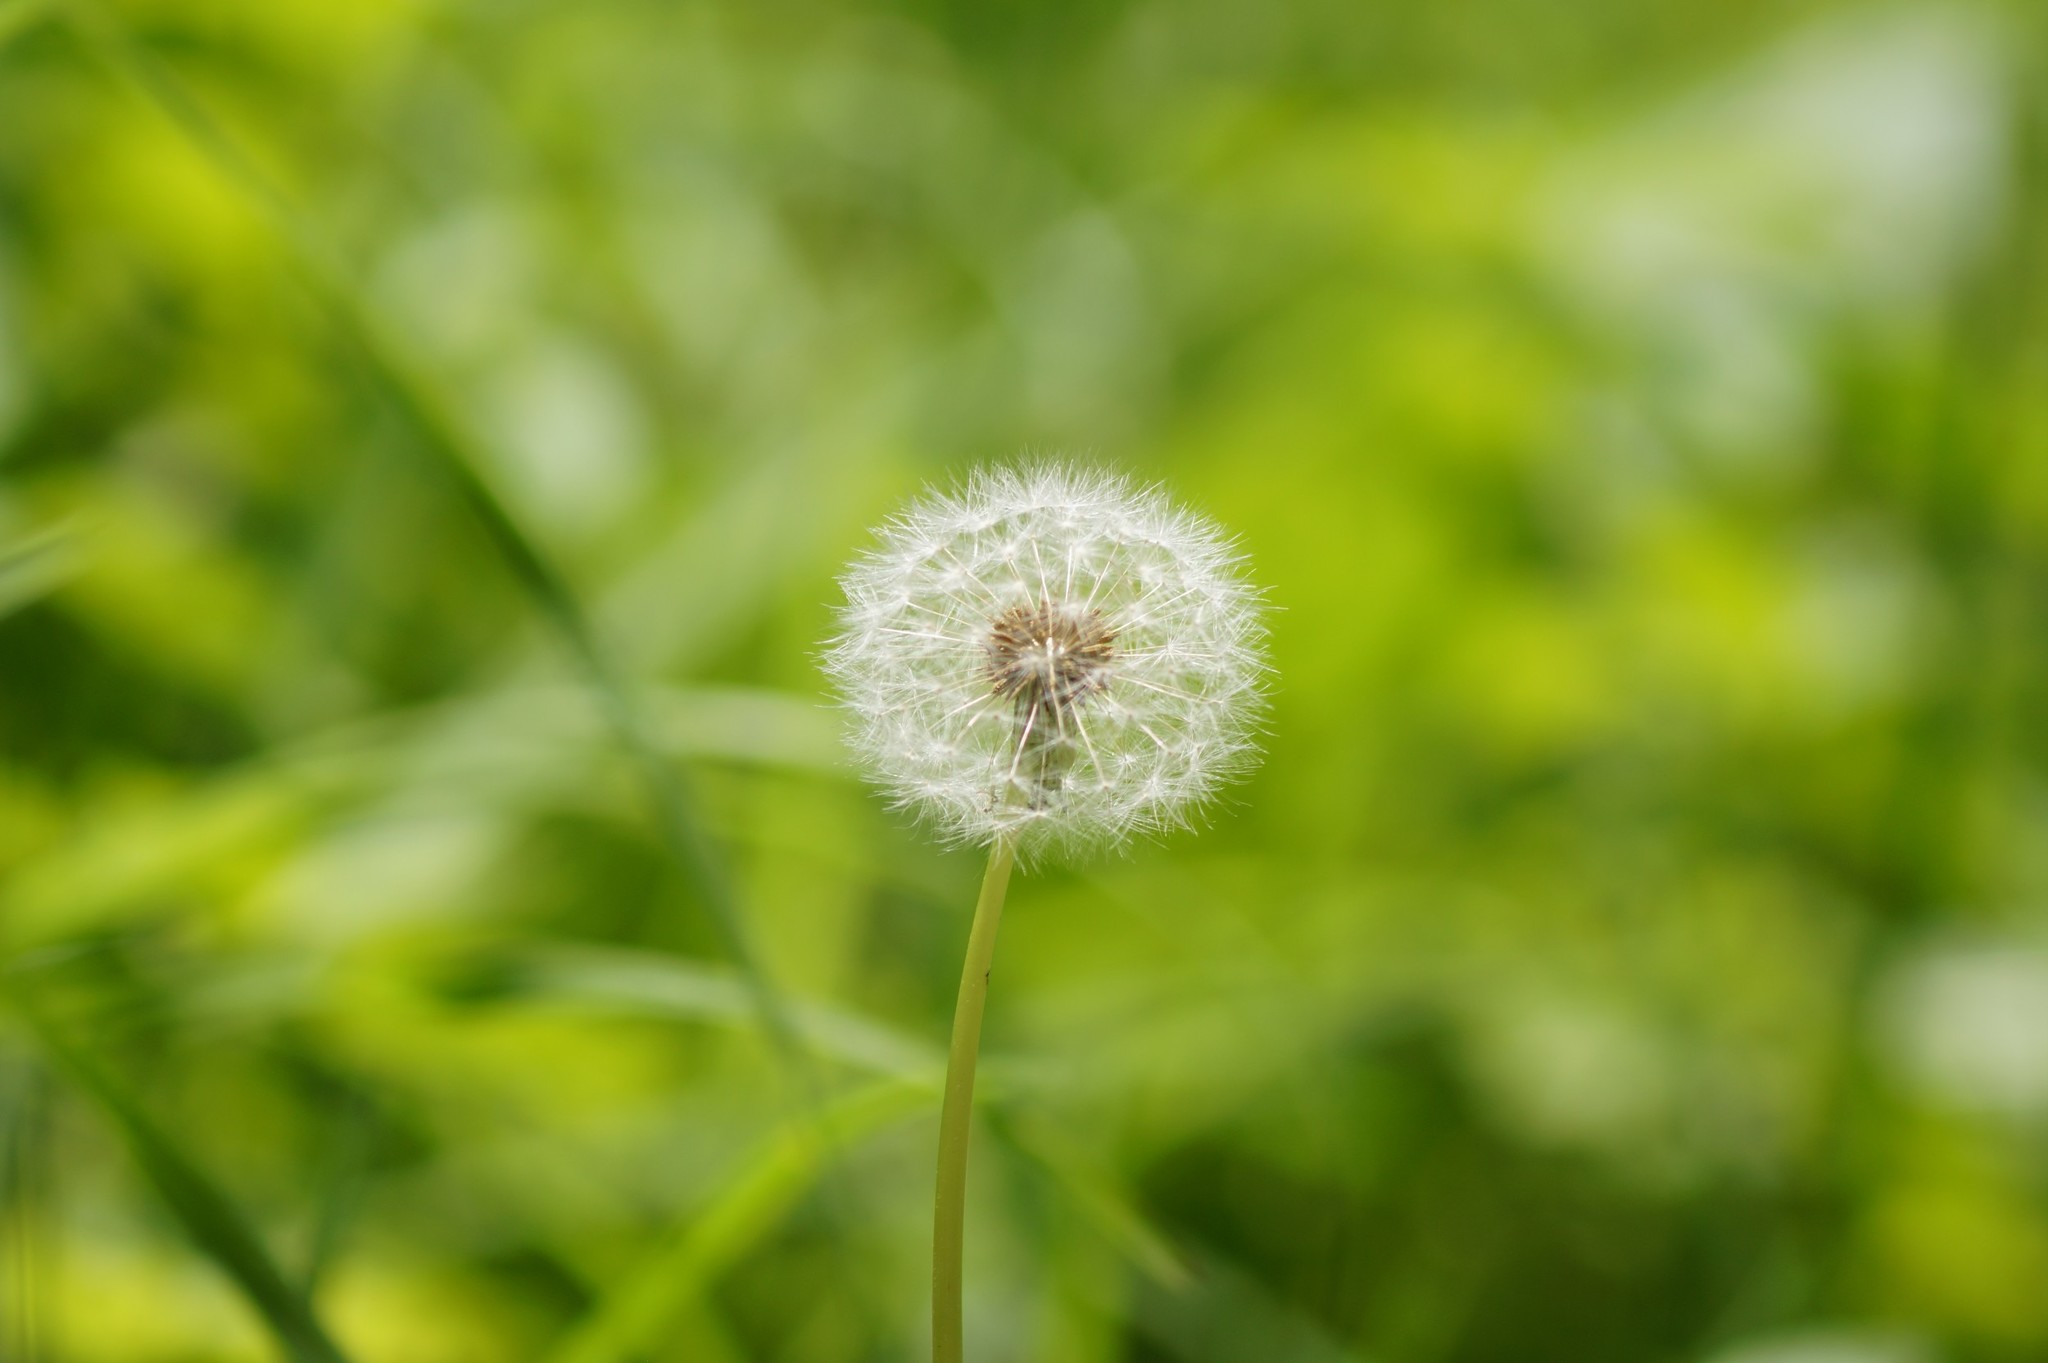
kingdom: Plantae
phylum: Tracheophyta
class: Magnoliopsida
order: Asterales
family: Asteraceae
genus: Taraxacum
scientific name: Taraxacum officinale
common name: Common dandelion
